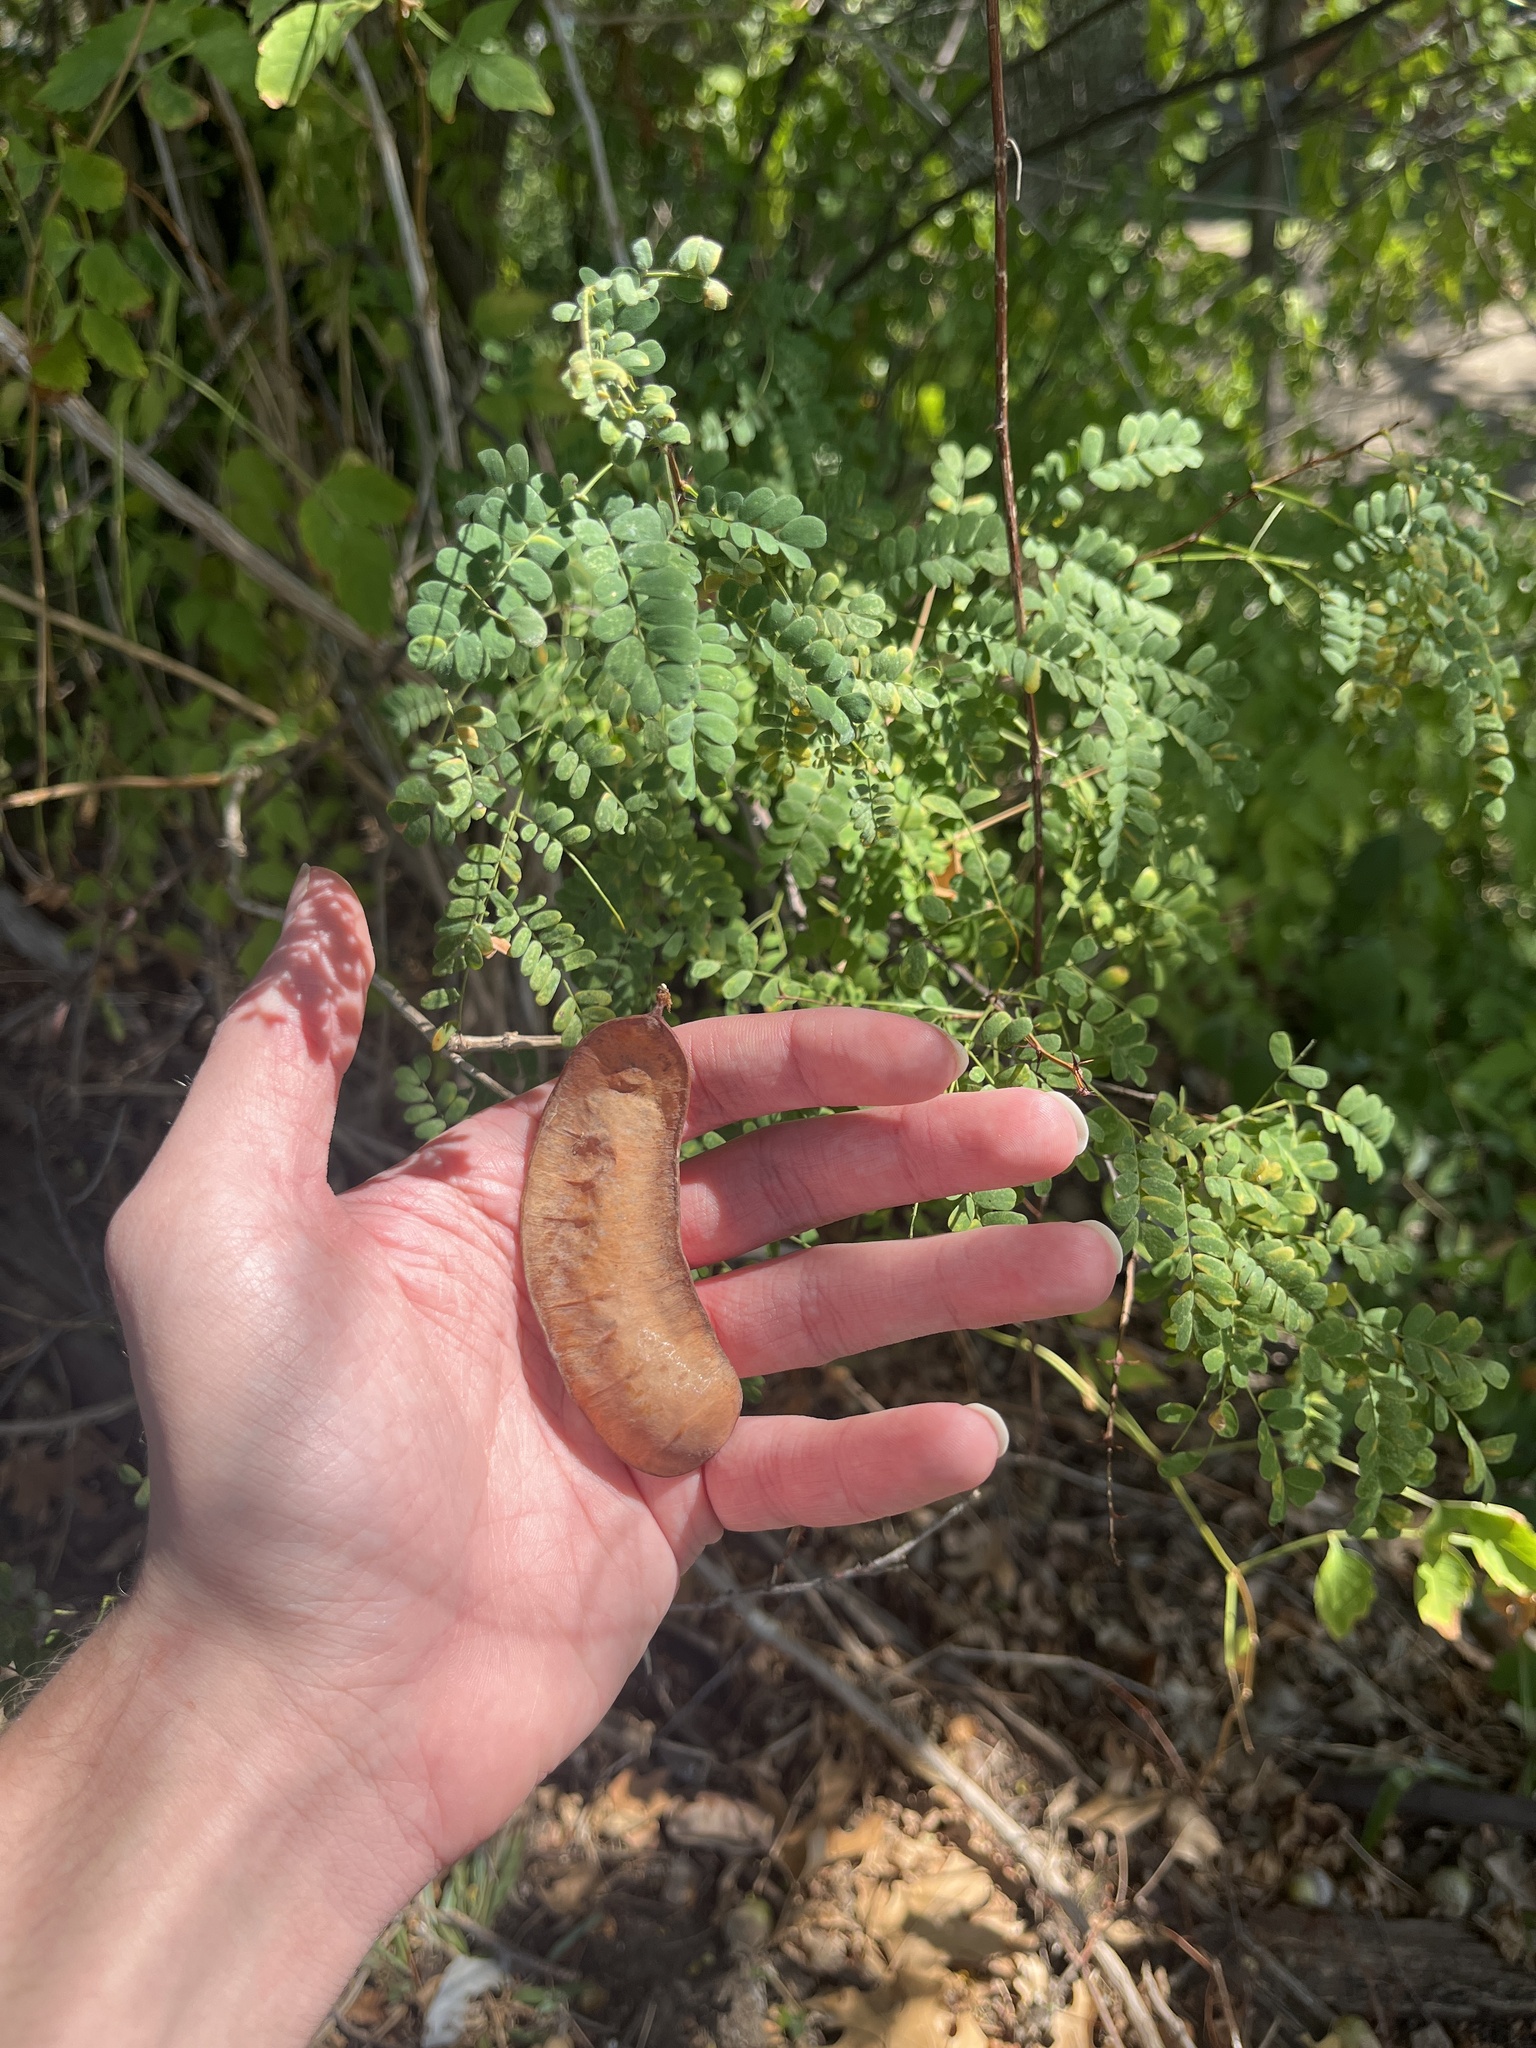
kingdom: Plantae
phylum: Tracheophyta
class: Magnoliopsida
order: Fabales
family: Fabaceae
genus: Senegalia
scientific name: Senegalia roemeriana
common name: Roemer's acacia
